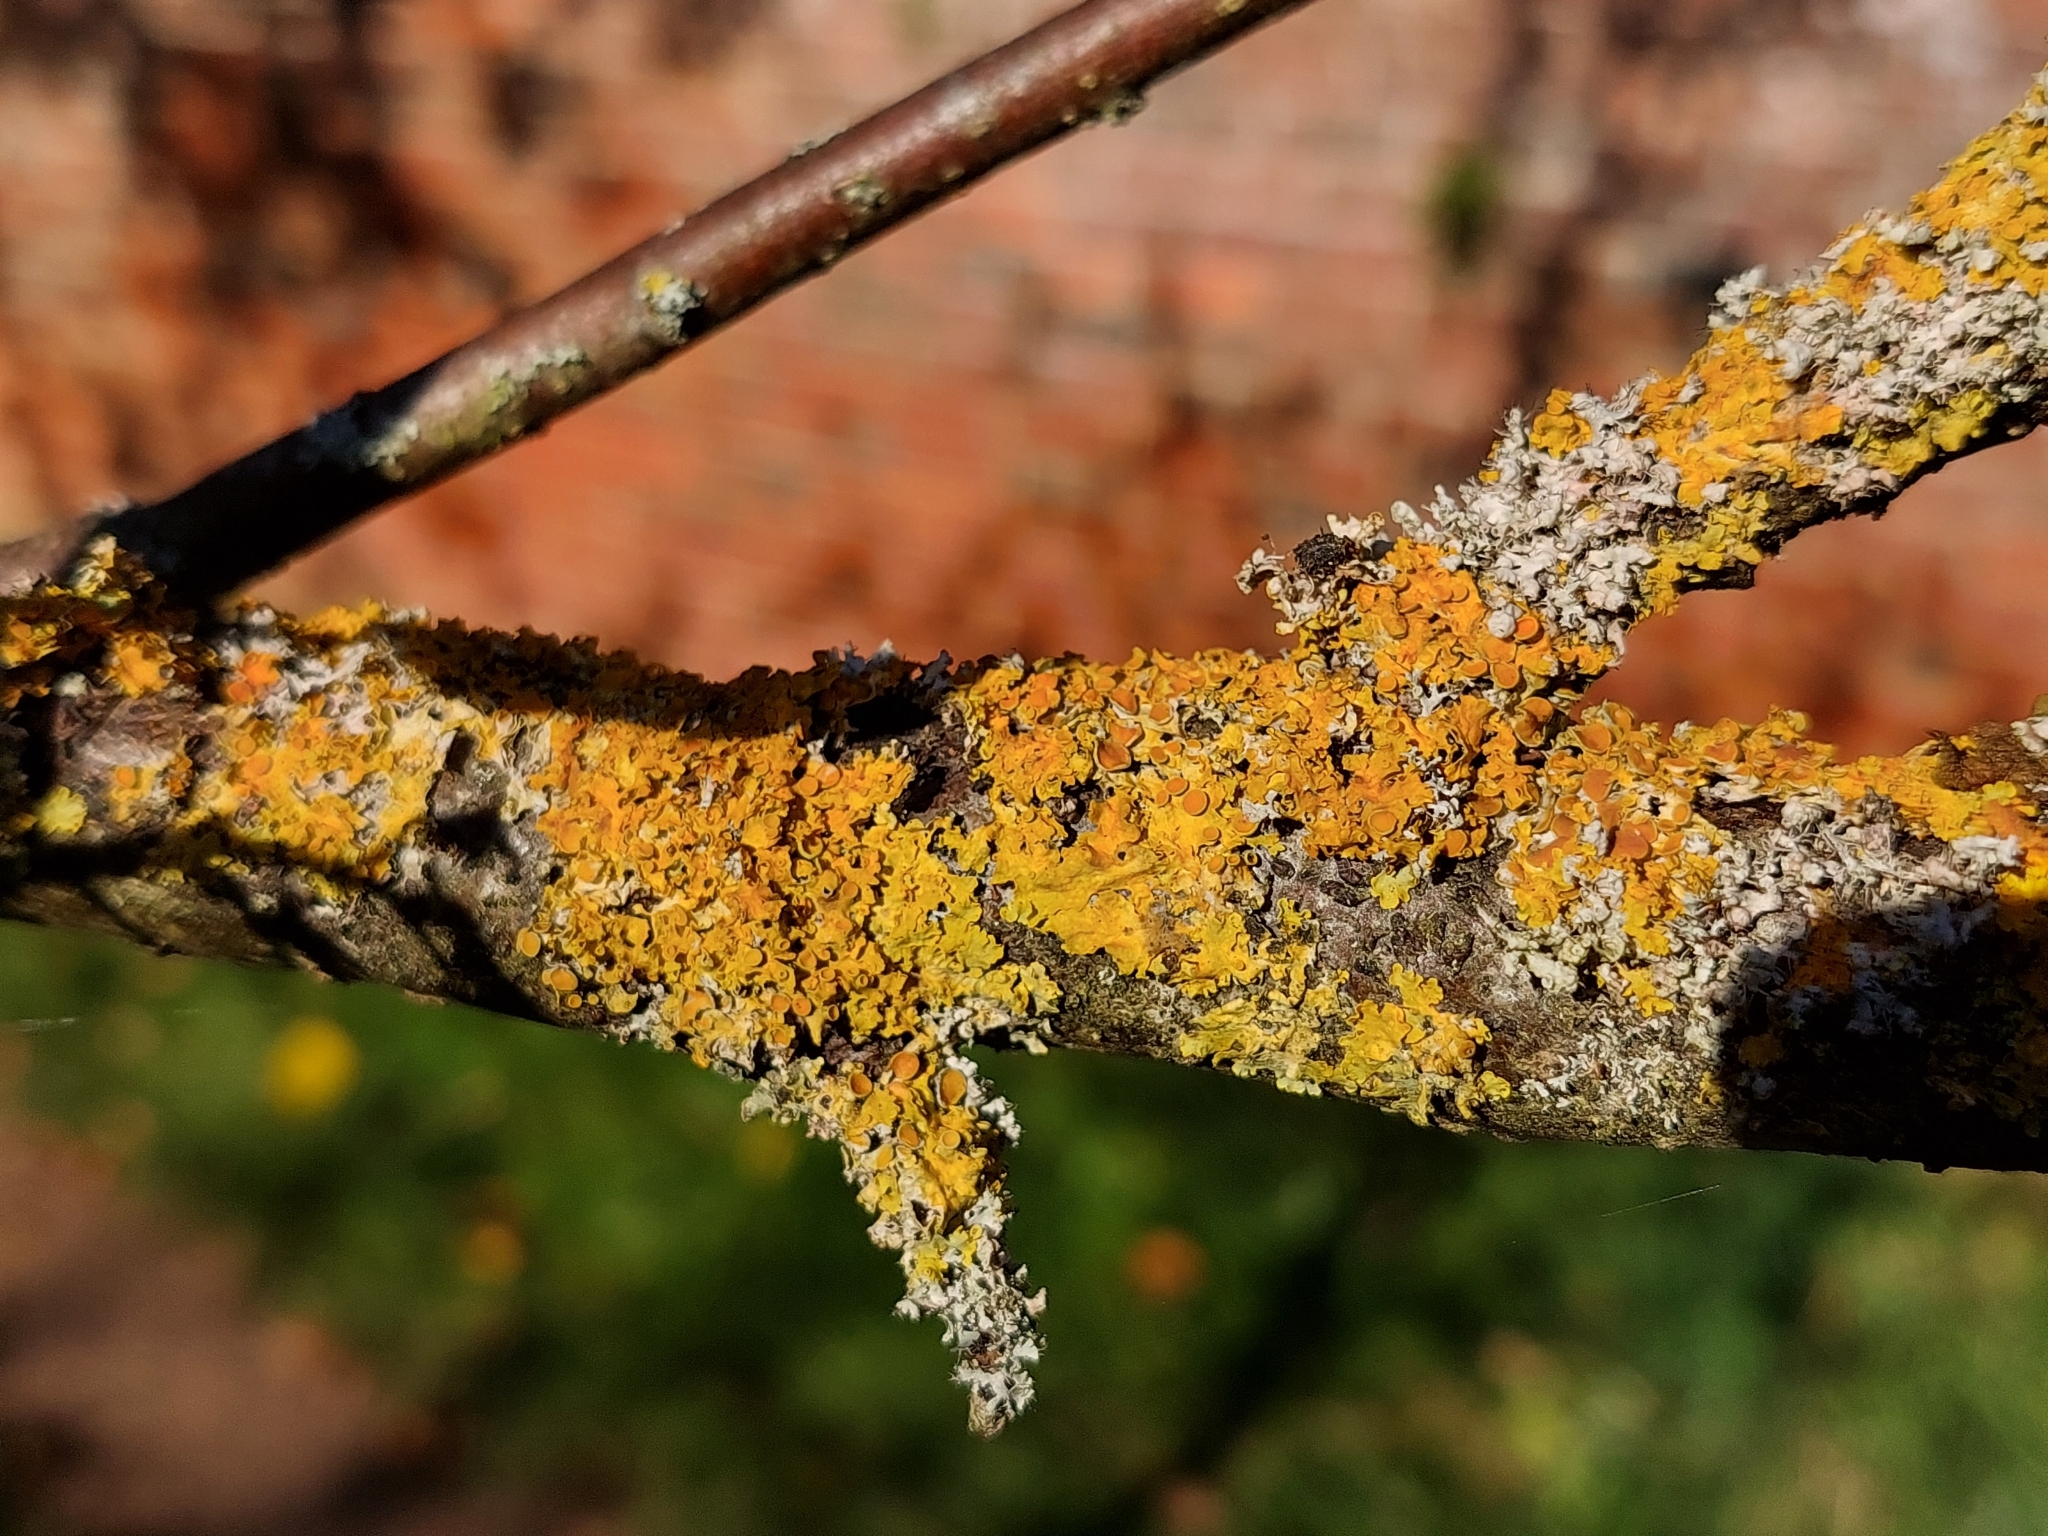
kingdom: Fungi
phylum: Ascomycota
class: Lecanoromycetes
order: Teloschistales
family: Teloschistaceae
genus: Xanthoria
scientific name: Xanthoria parietina
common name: Common orange lichen
